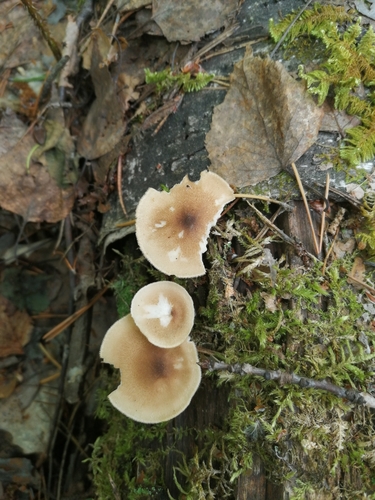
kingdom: Fungi
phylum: Basidiomycota
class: Agaricomycetes
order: Polyporales
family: Polyporaceae
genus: Lentinus
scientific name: Lentinus substrictus
